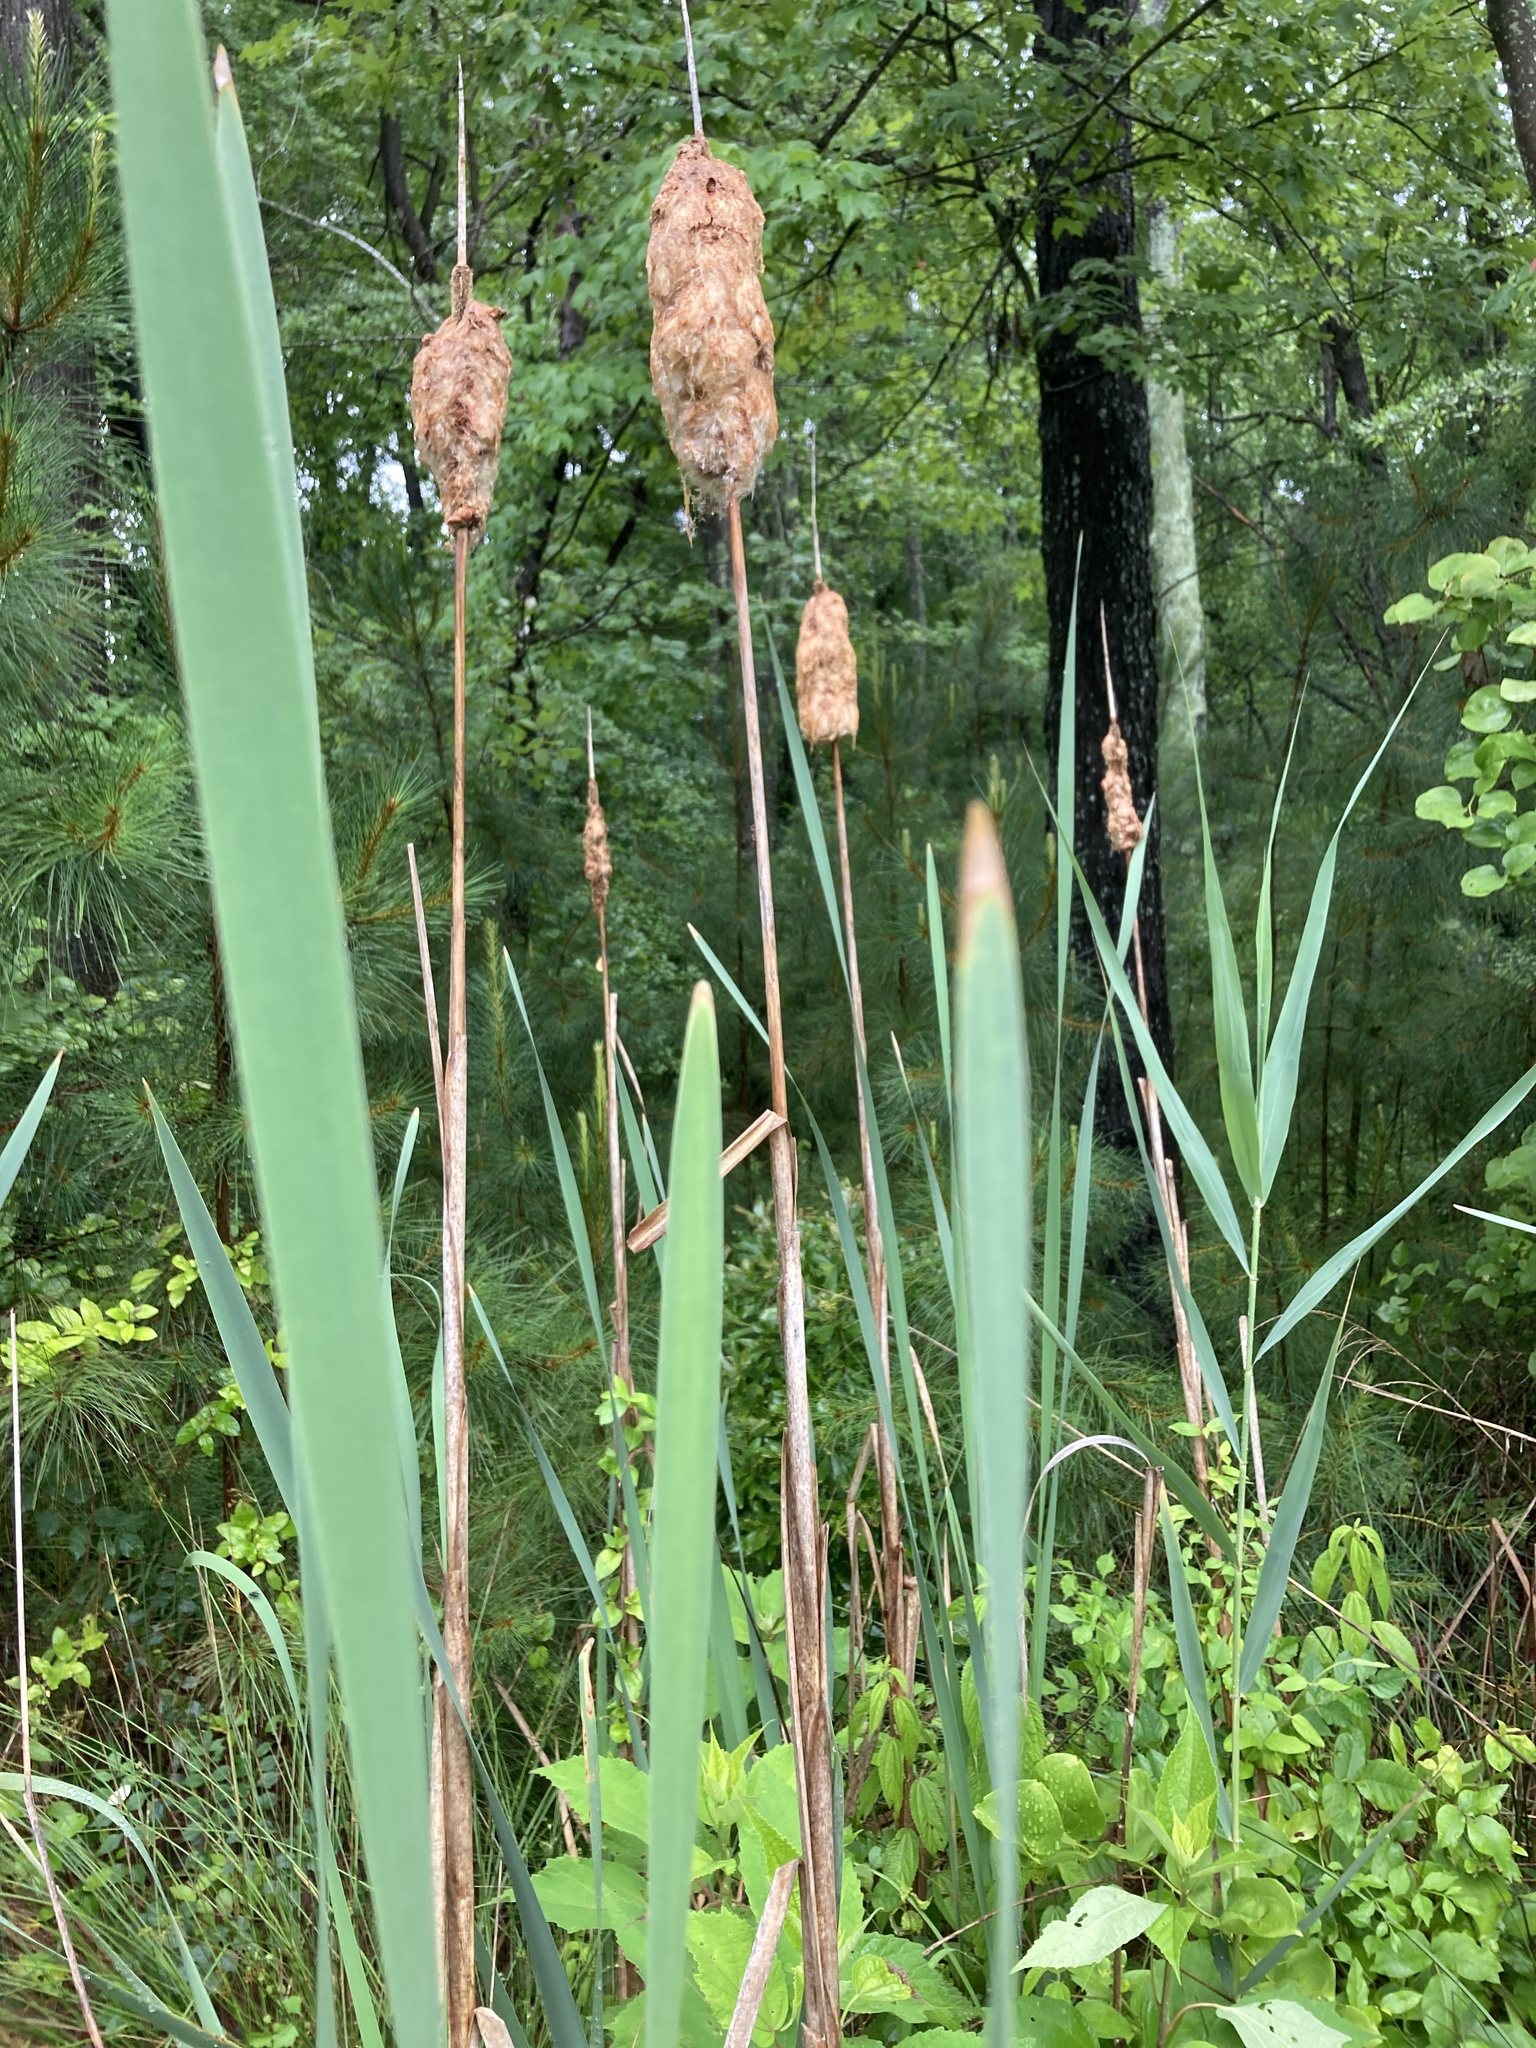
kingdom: Plantae
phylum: Tracheophyta
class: Liliopsida
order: Poales
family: Typhaceae
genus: Typha
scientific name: Typha latifolia
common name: Broadleaf cattail
